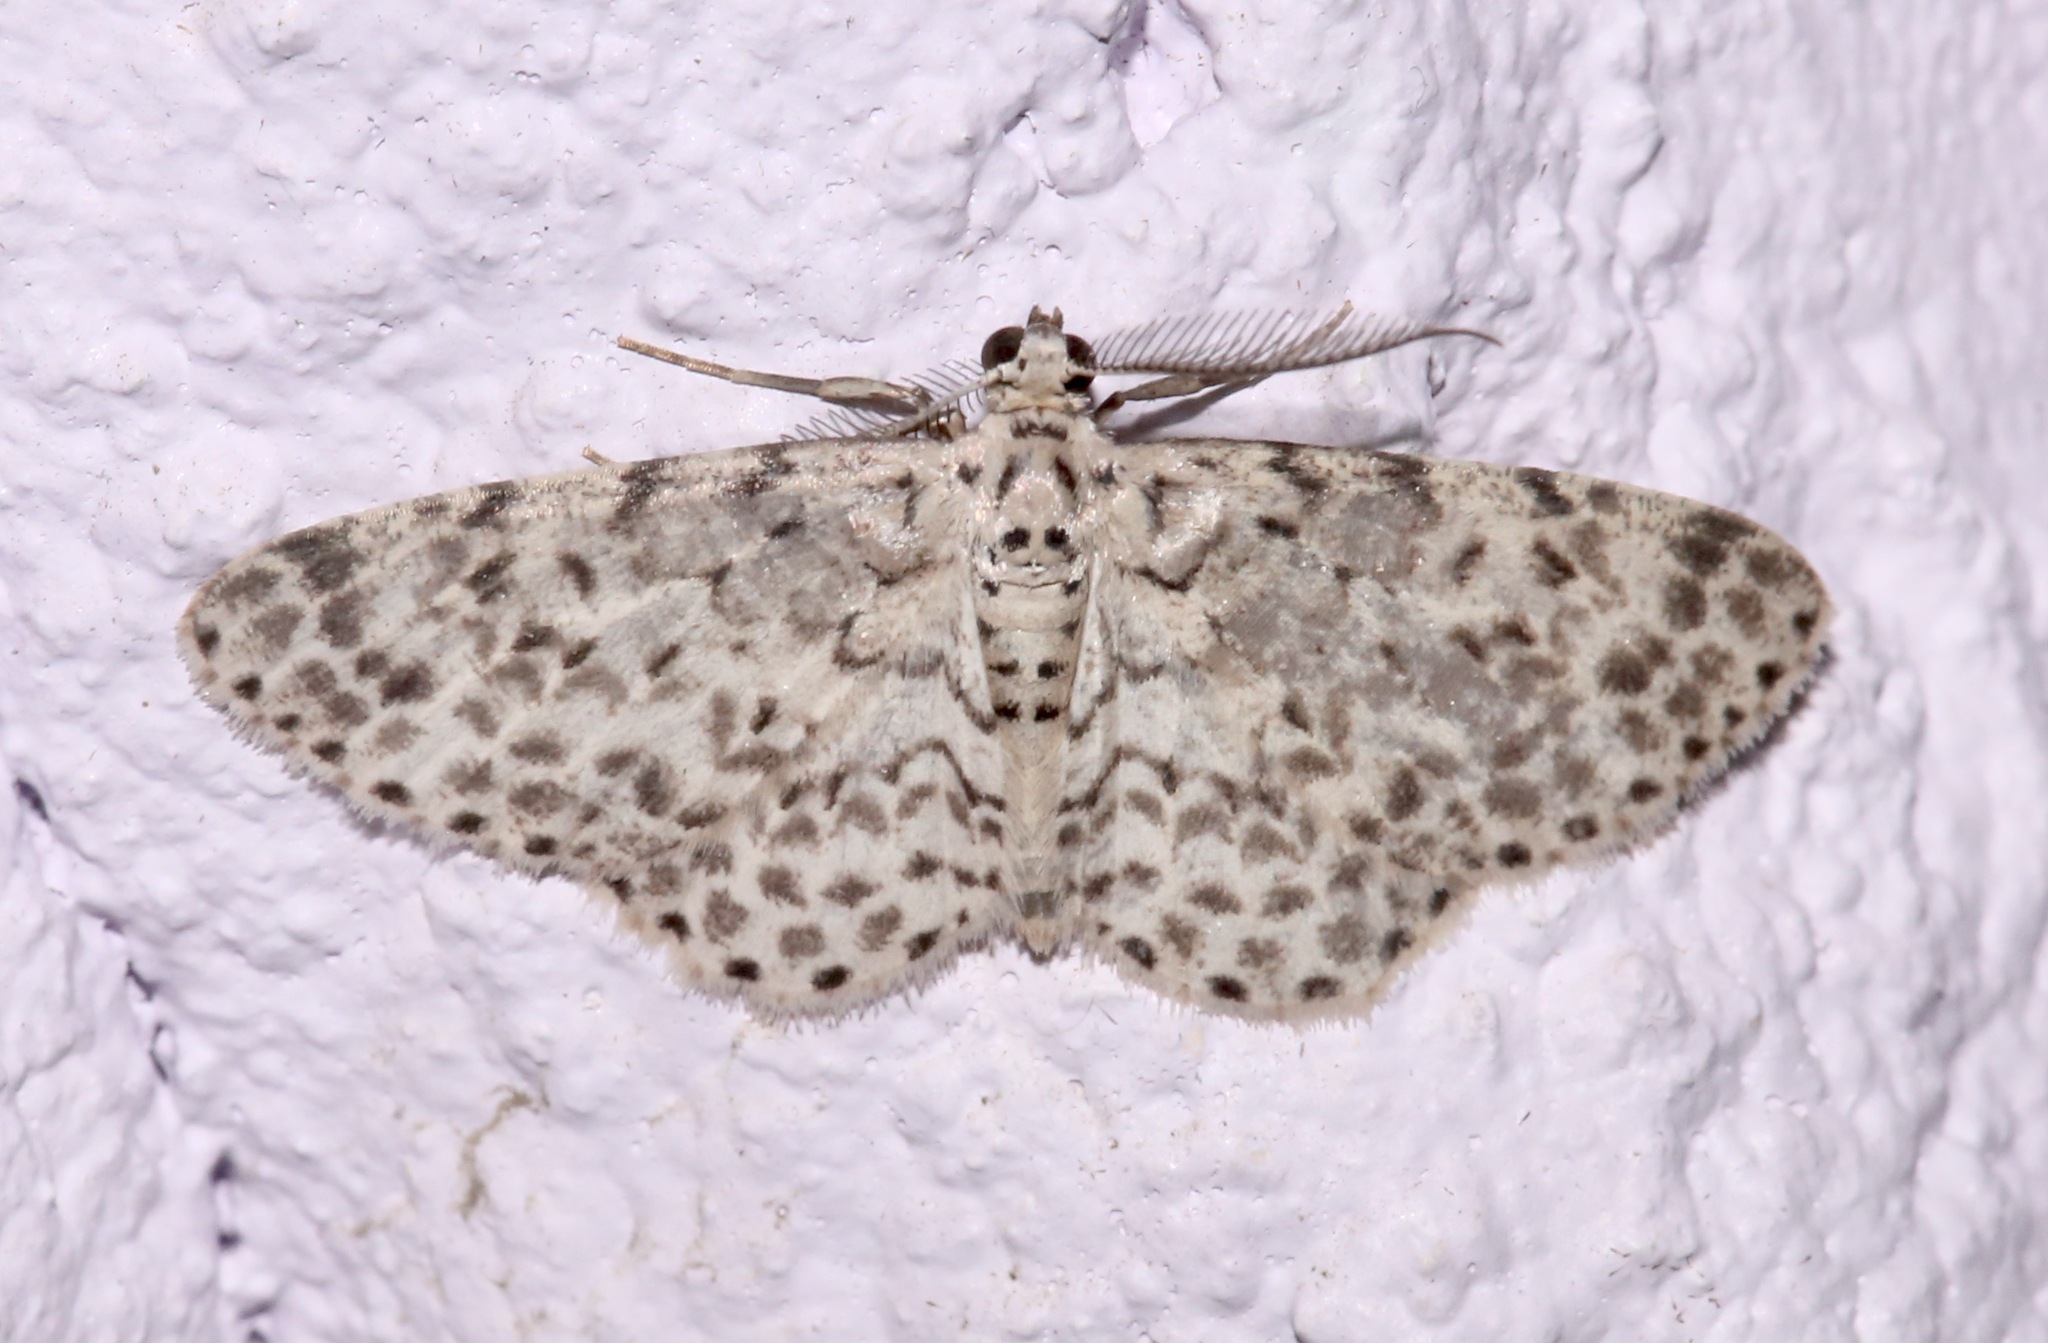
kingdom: Animalia
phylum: Arthropoda
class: Insecta
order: Lepidoptera
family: Geometridae
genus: Hymenomima
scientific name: Hymenomima umbelularia
